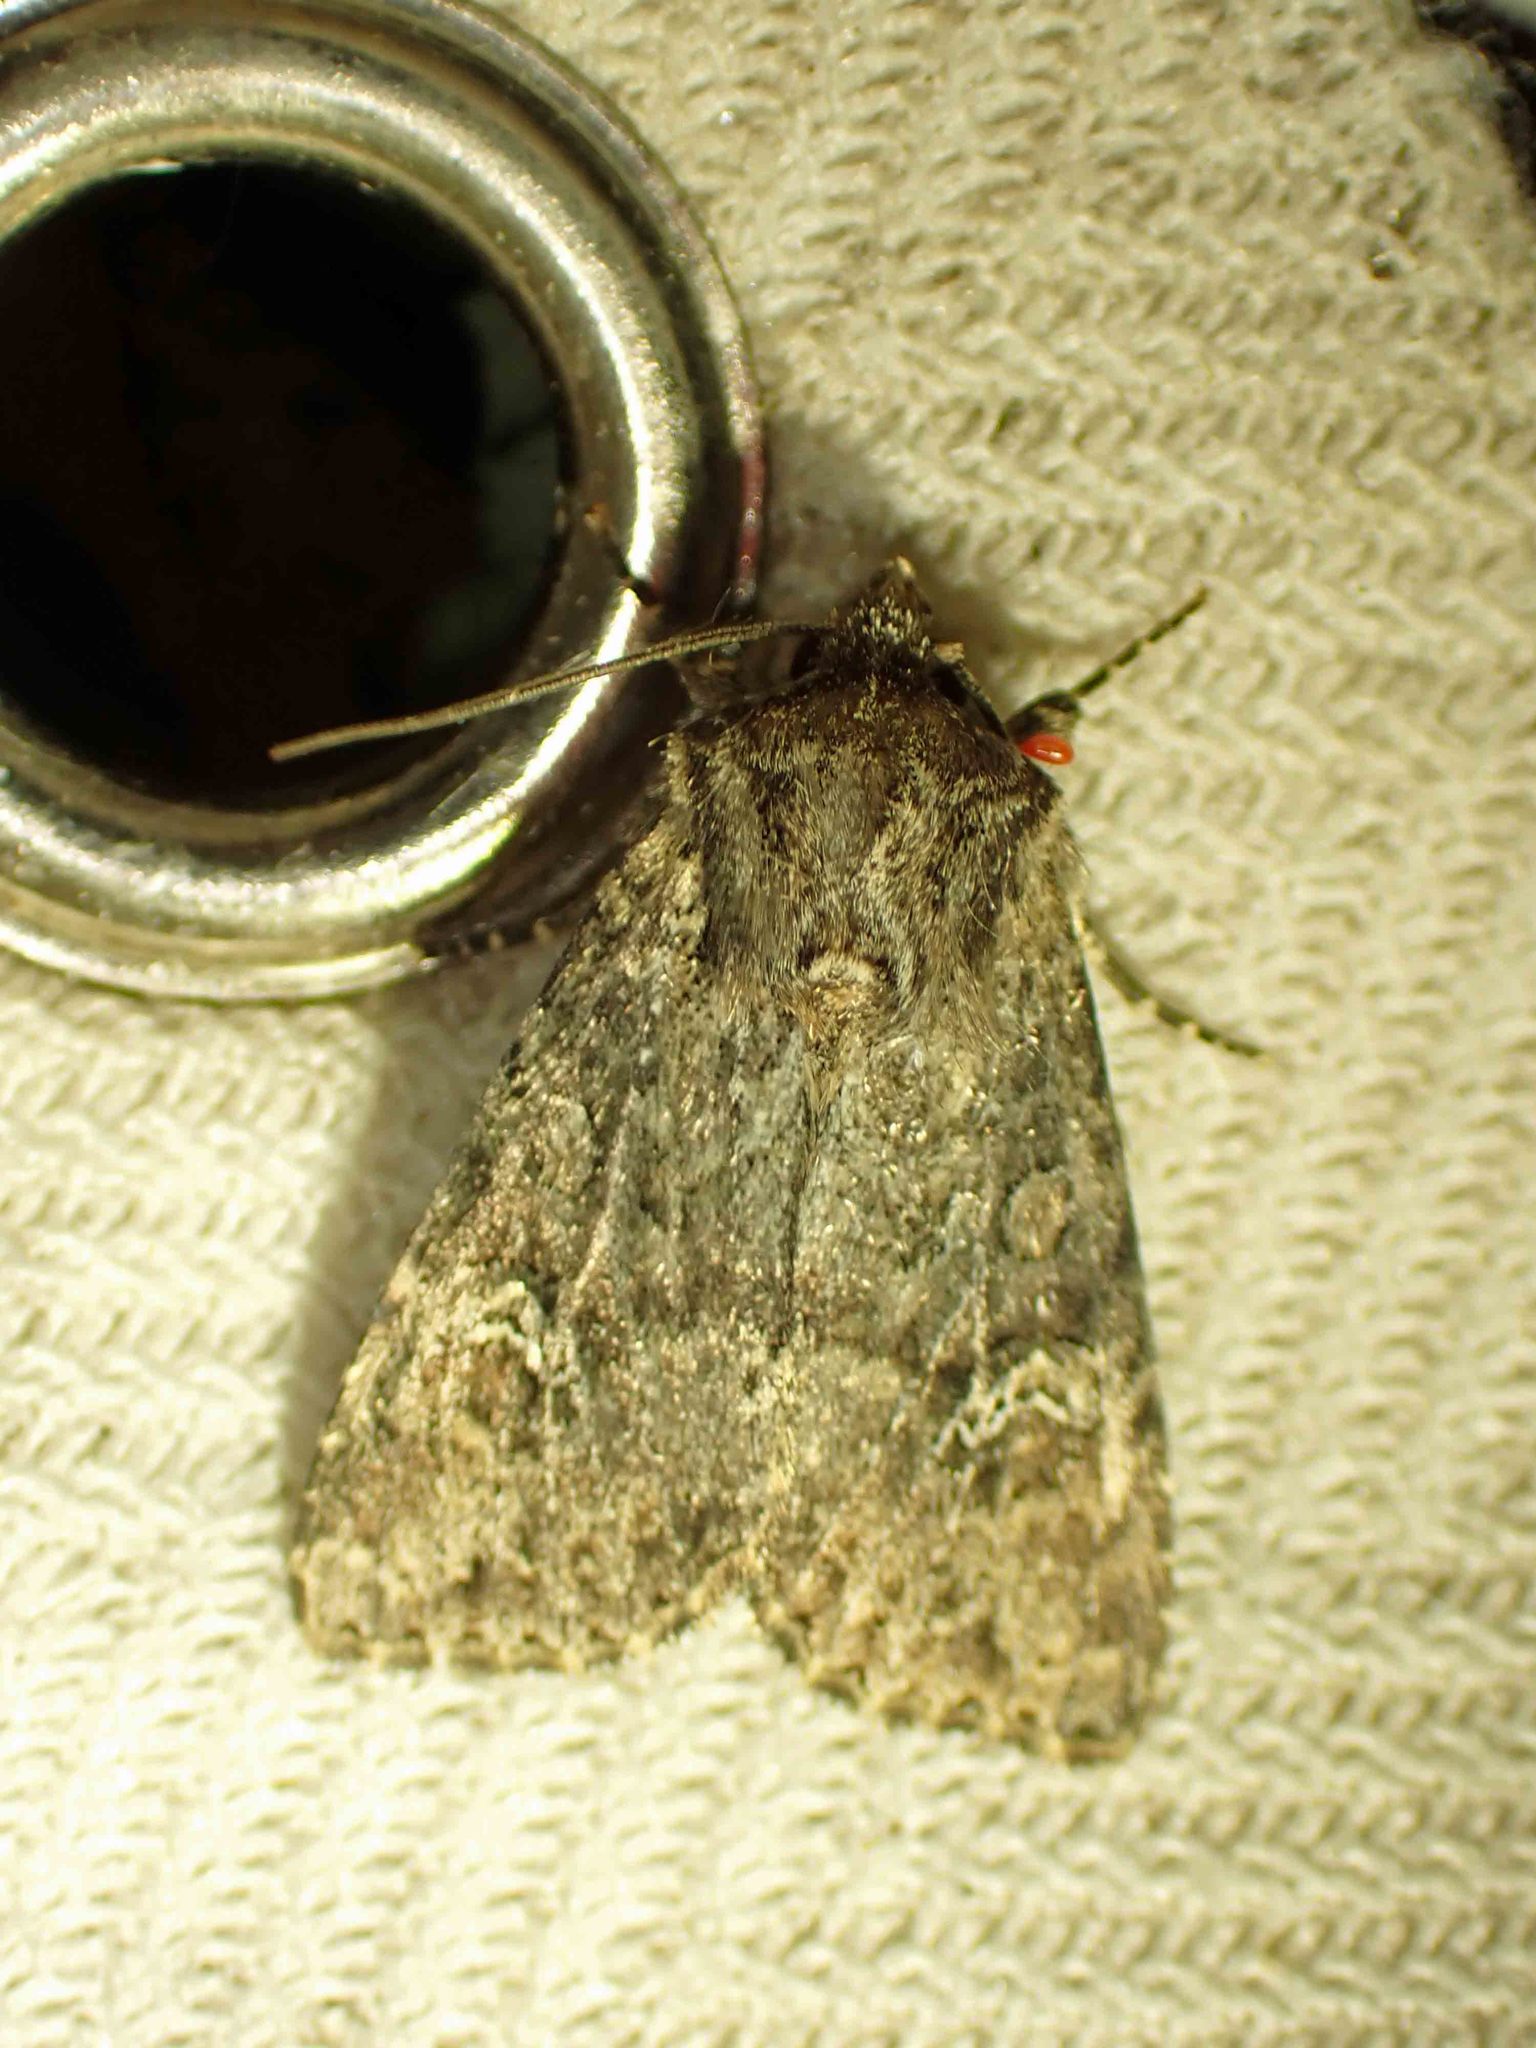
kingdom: Animalia
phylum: Arthropoda
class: Insecta
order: Lepidoptera
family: Noctuidae
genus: Apamea
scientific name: Apamea unanimis
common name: Small clouded brindle
